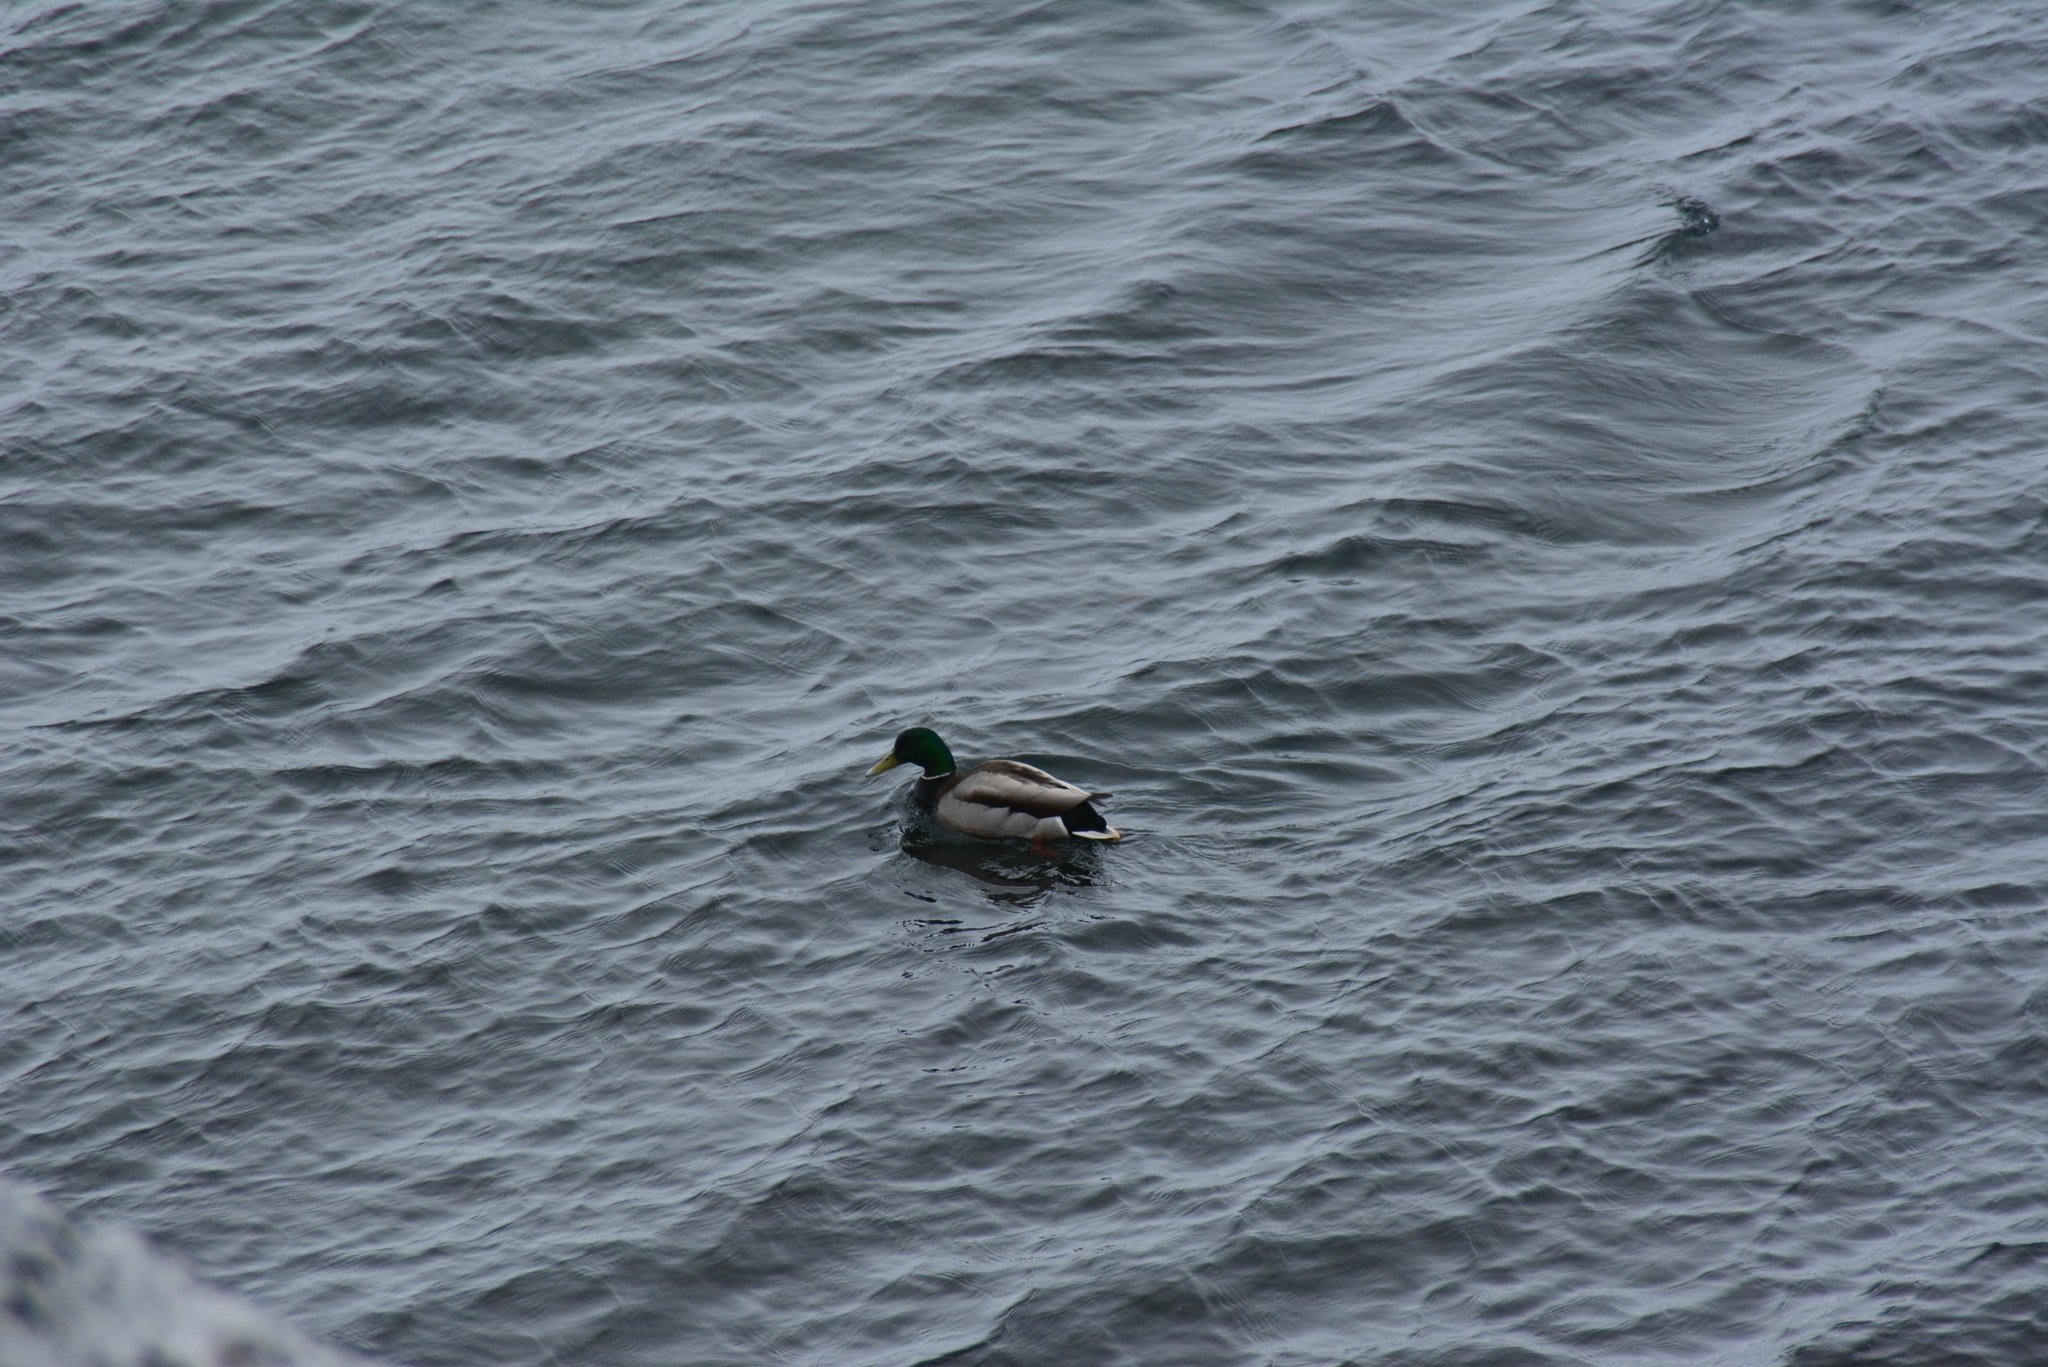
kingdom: Animalia
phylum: Chordata
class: Aves
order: Anseriformes
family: Anatidae
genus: Anas
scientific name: Anas platyrhynchos
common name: Mallard
